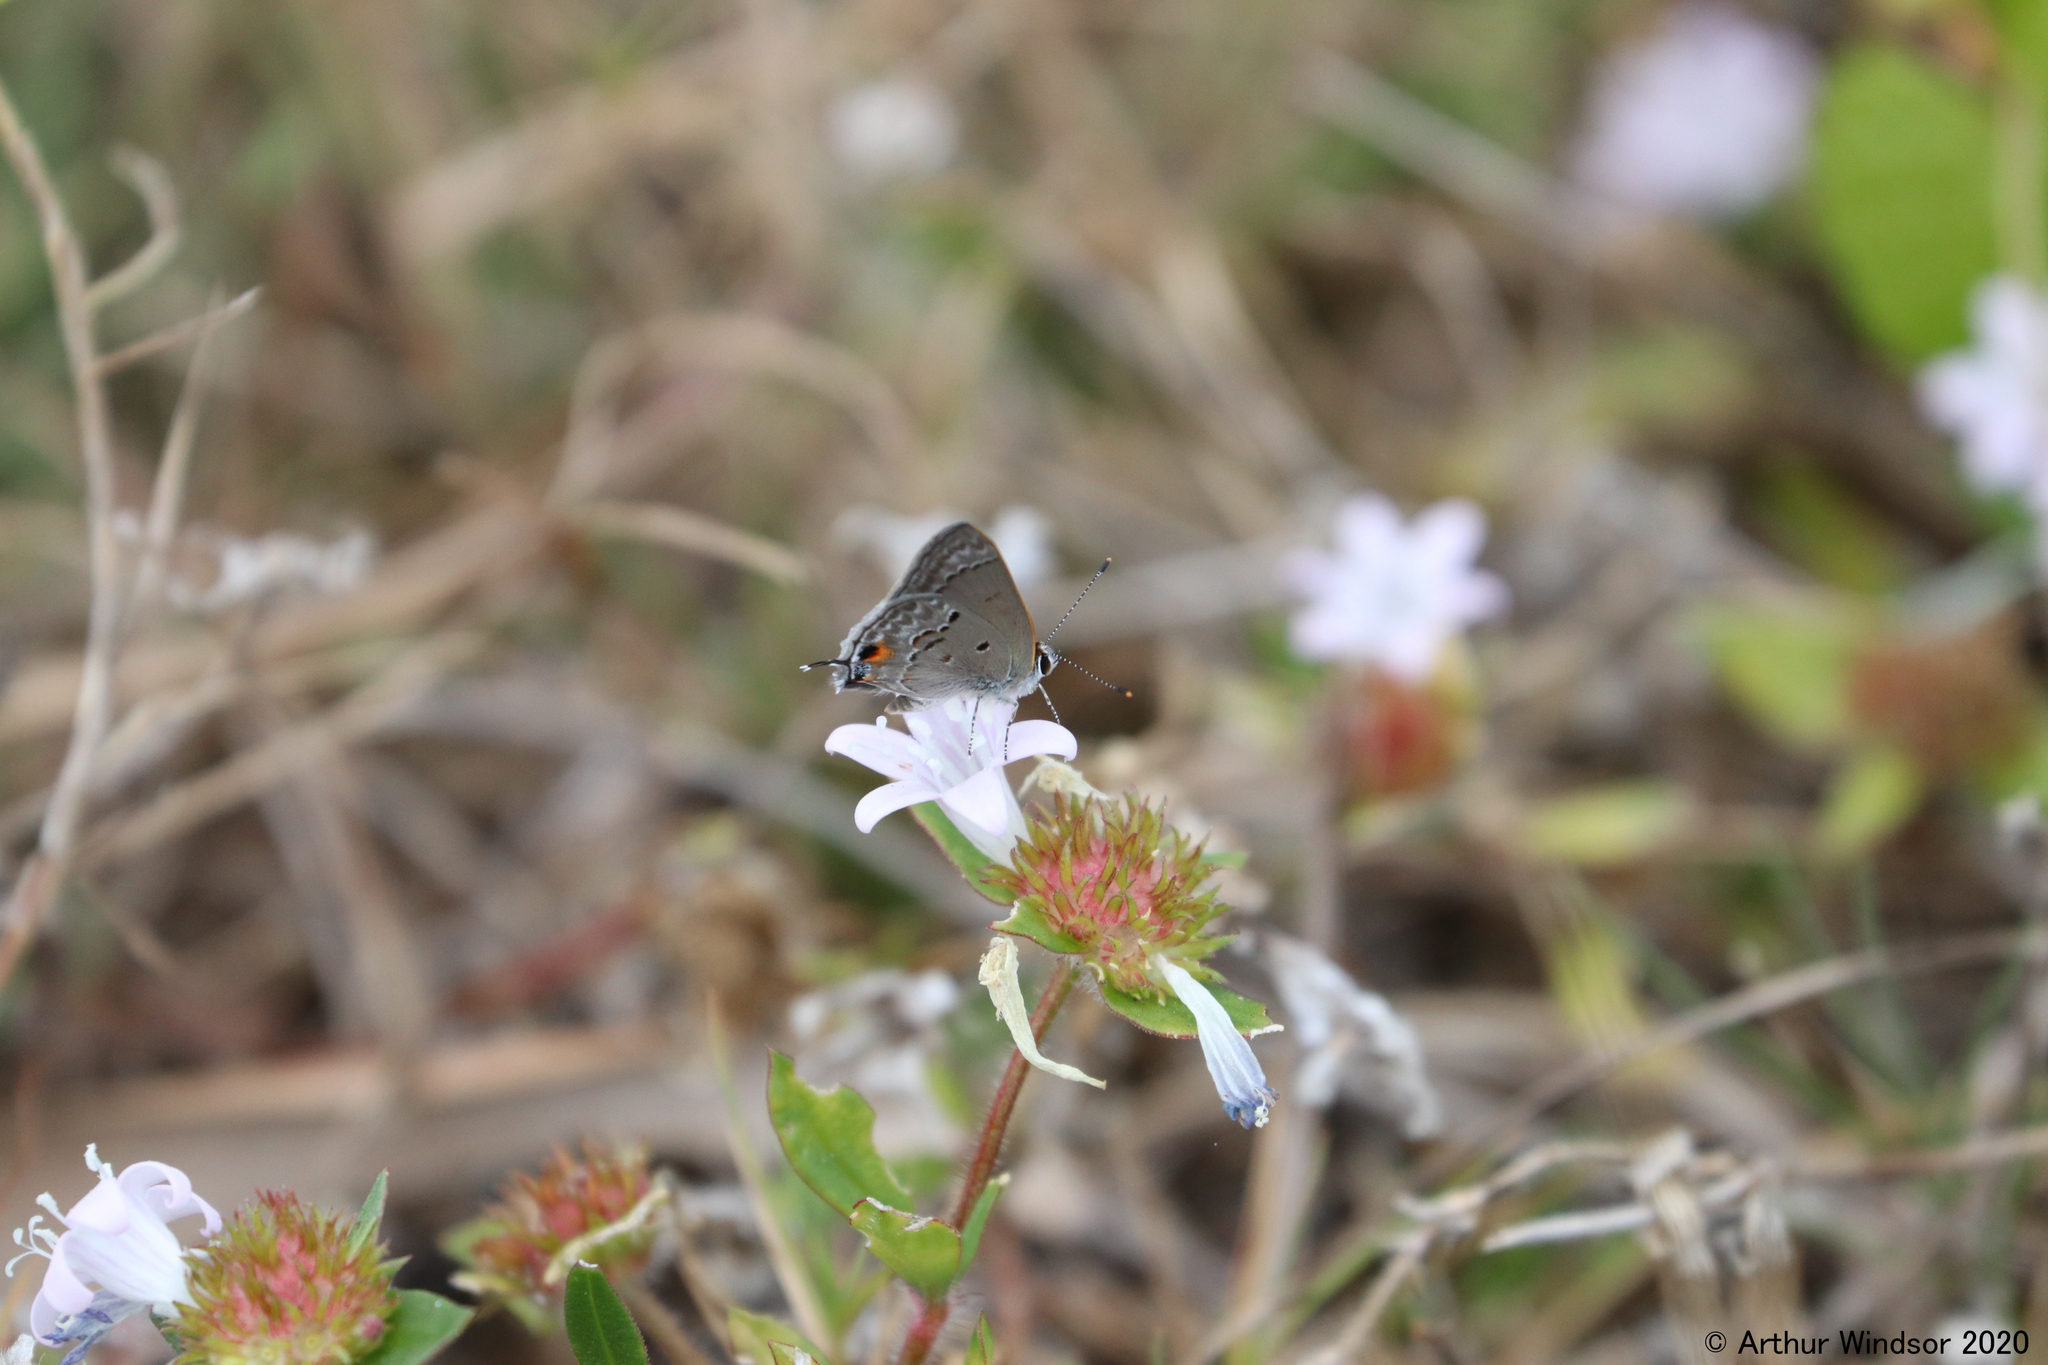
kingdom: Animalia
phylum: Arthropoda
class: Insecta
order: Lepidoptera
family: Lycaenidae
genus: Callicista
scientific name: Callicista columella
